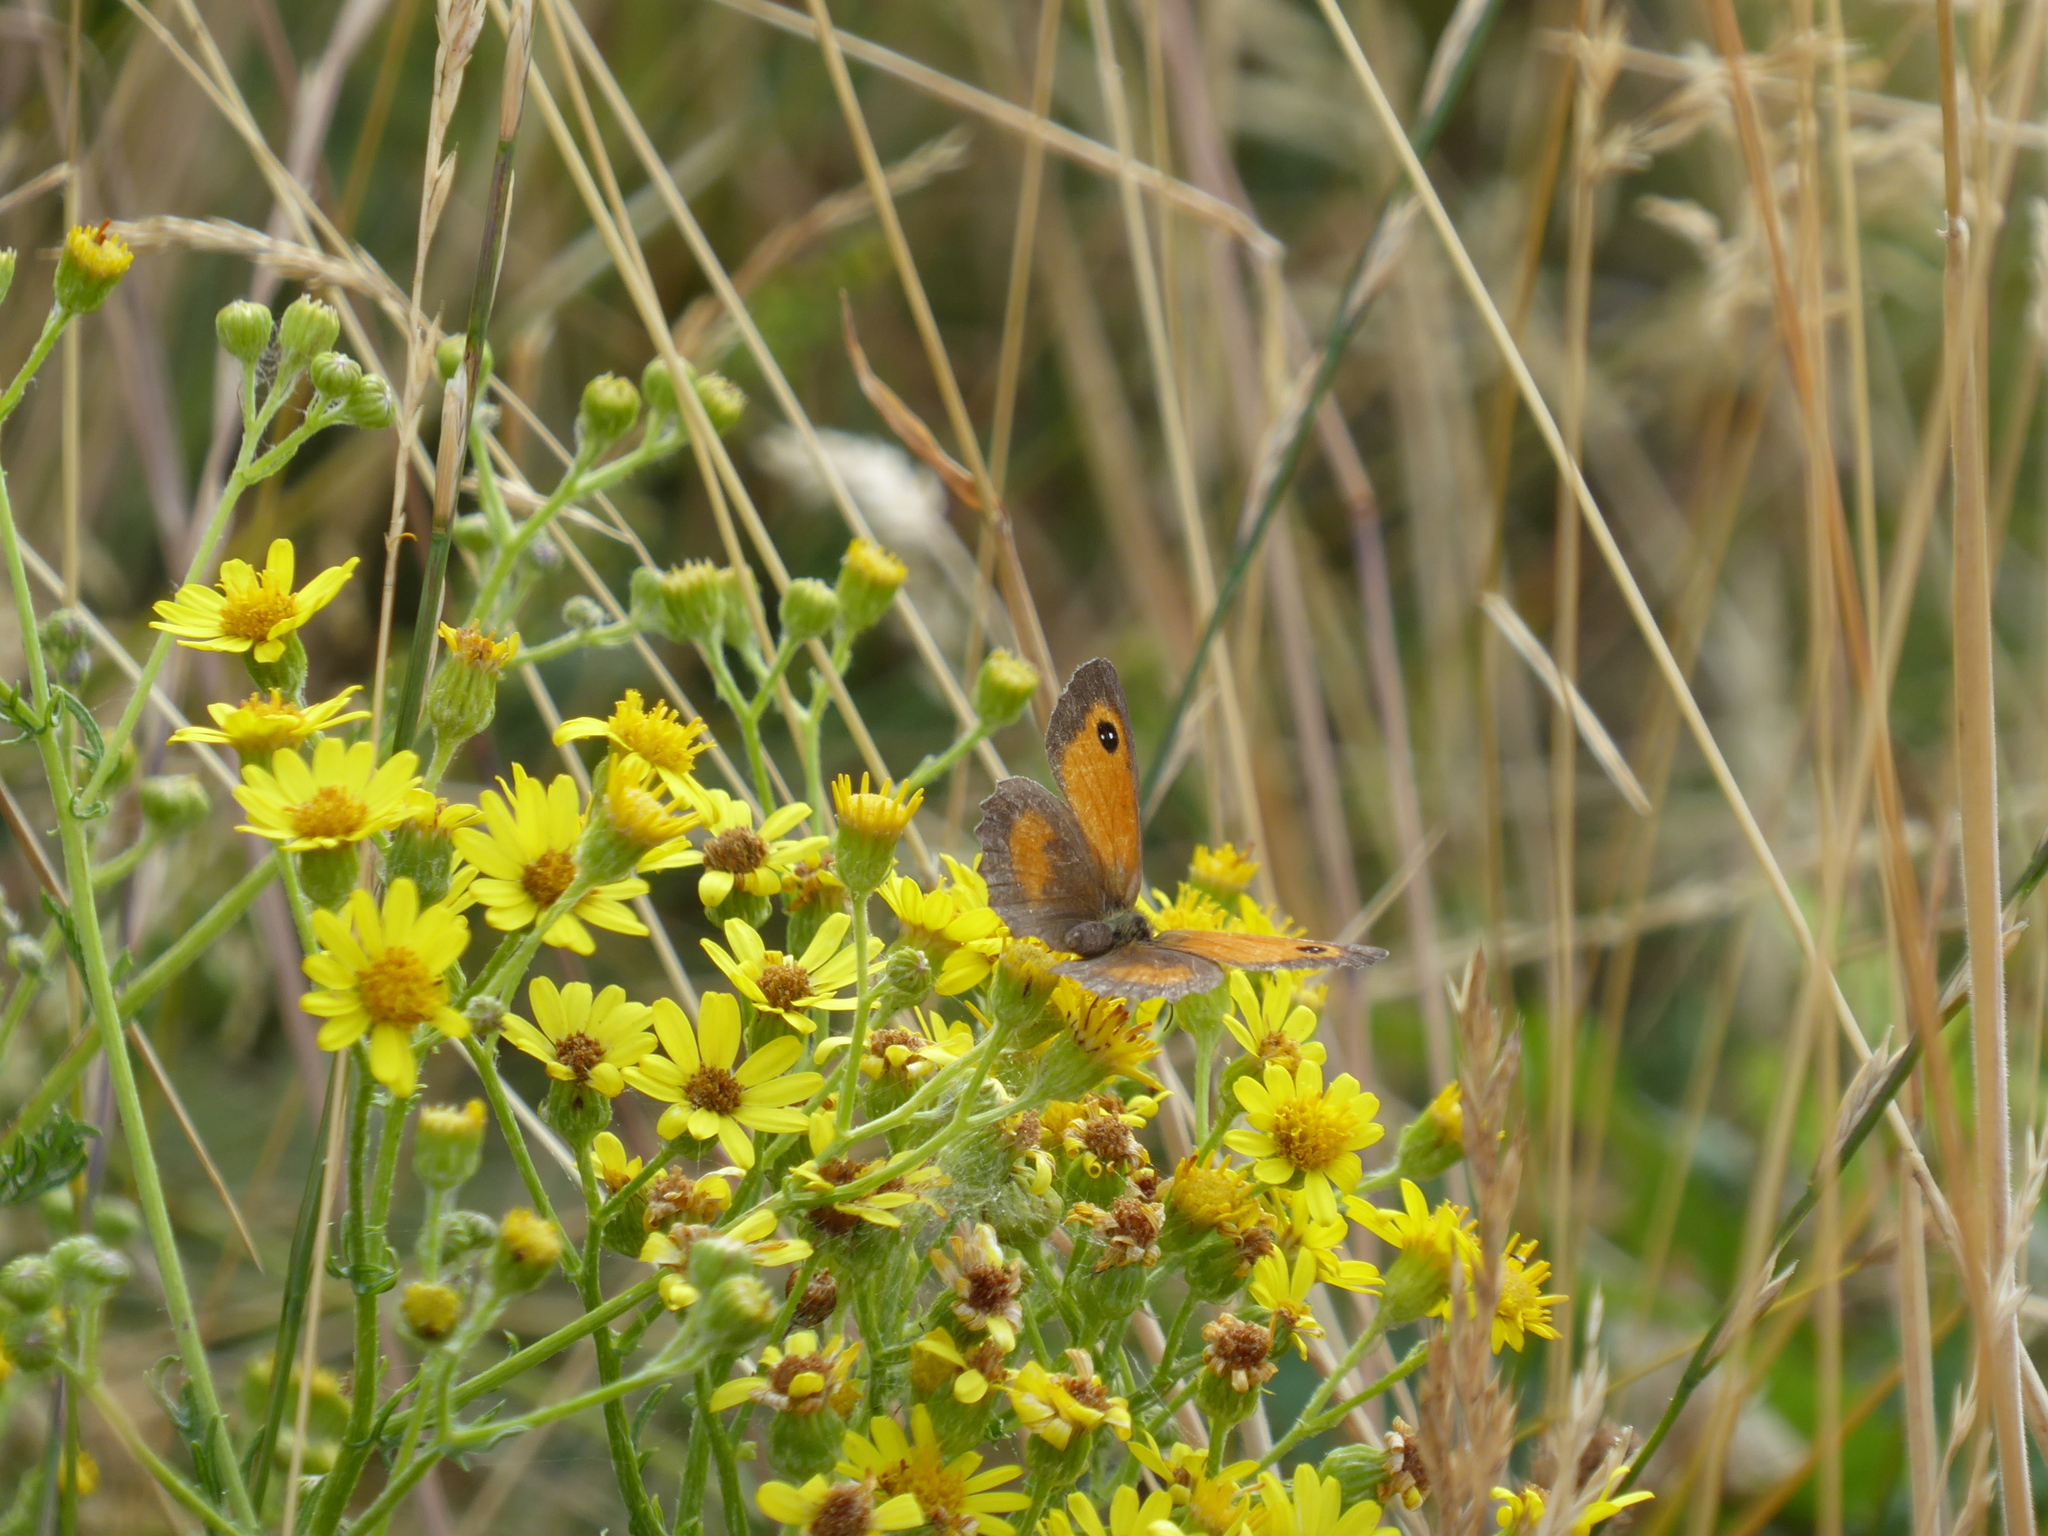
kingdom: Animalia
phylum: Arthropoda
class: Insecta
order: Lepidoptera
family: Nymphalidae
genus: Pyronia
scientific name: Pyronia tithonus
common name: Gatekeeper
